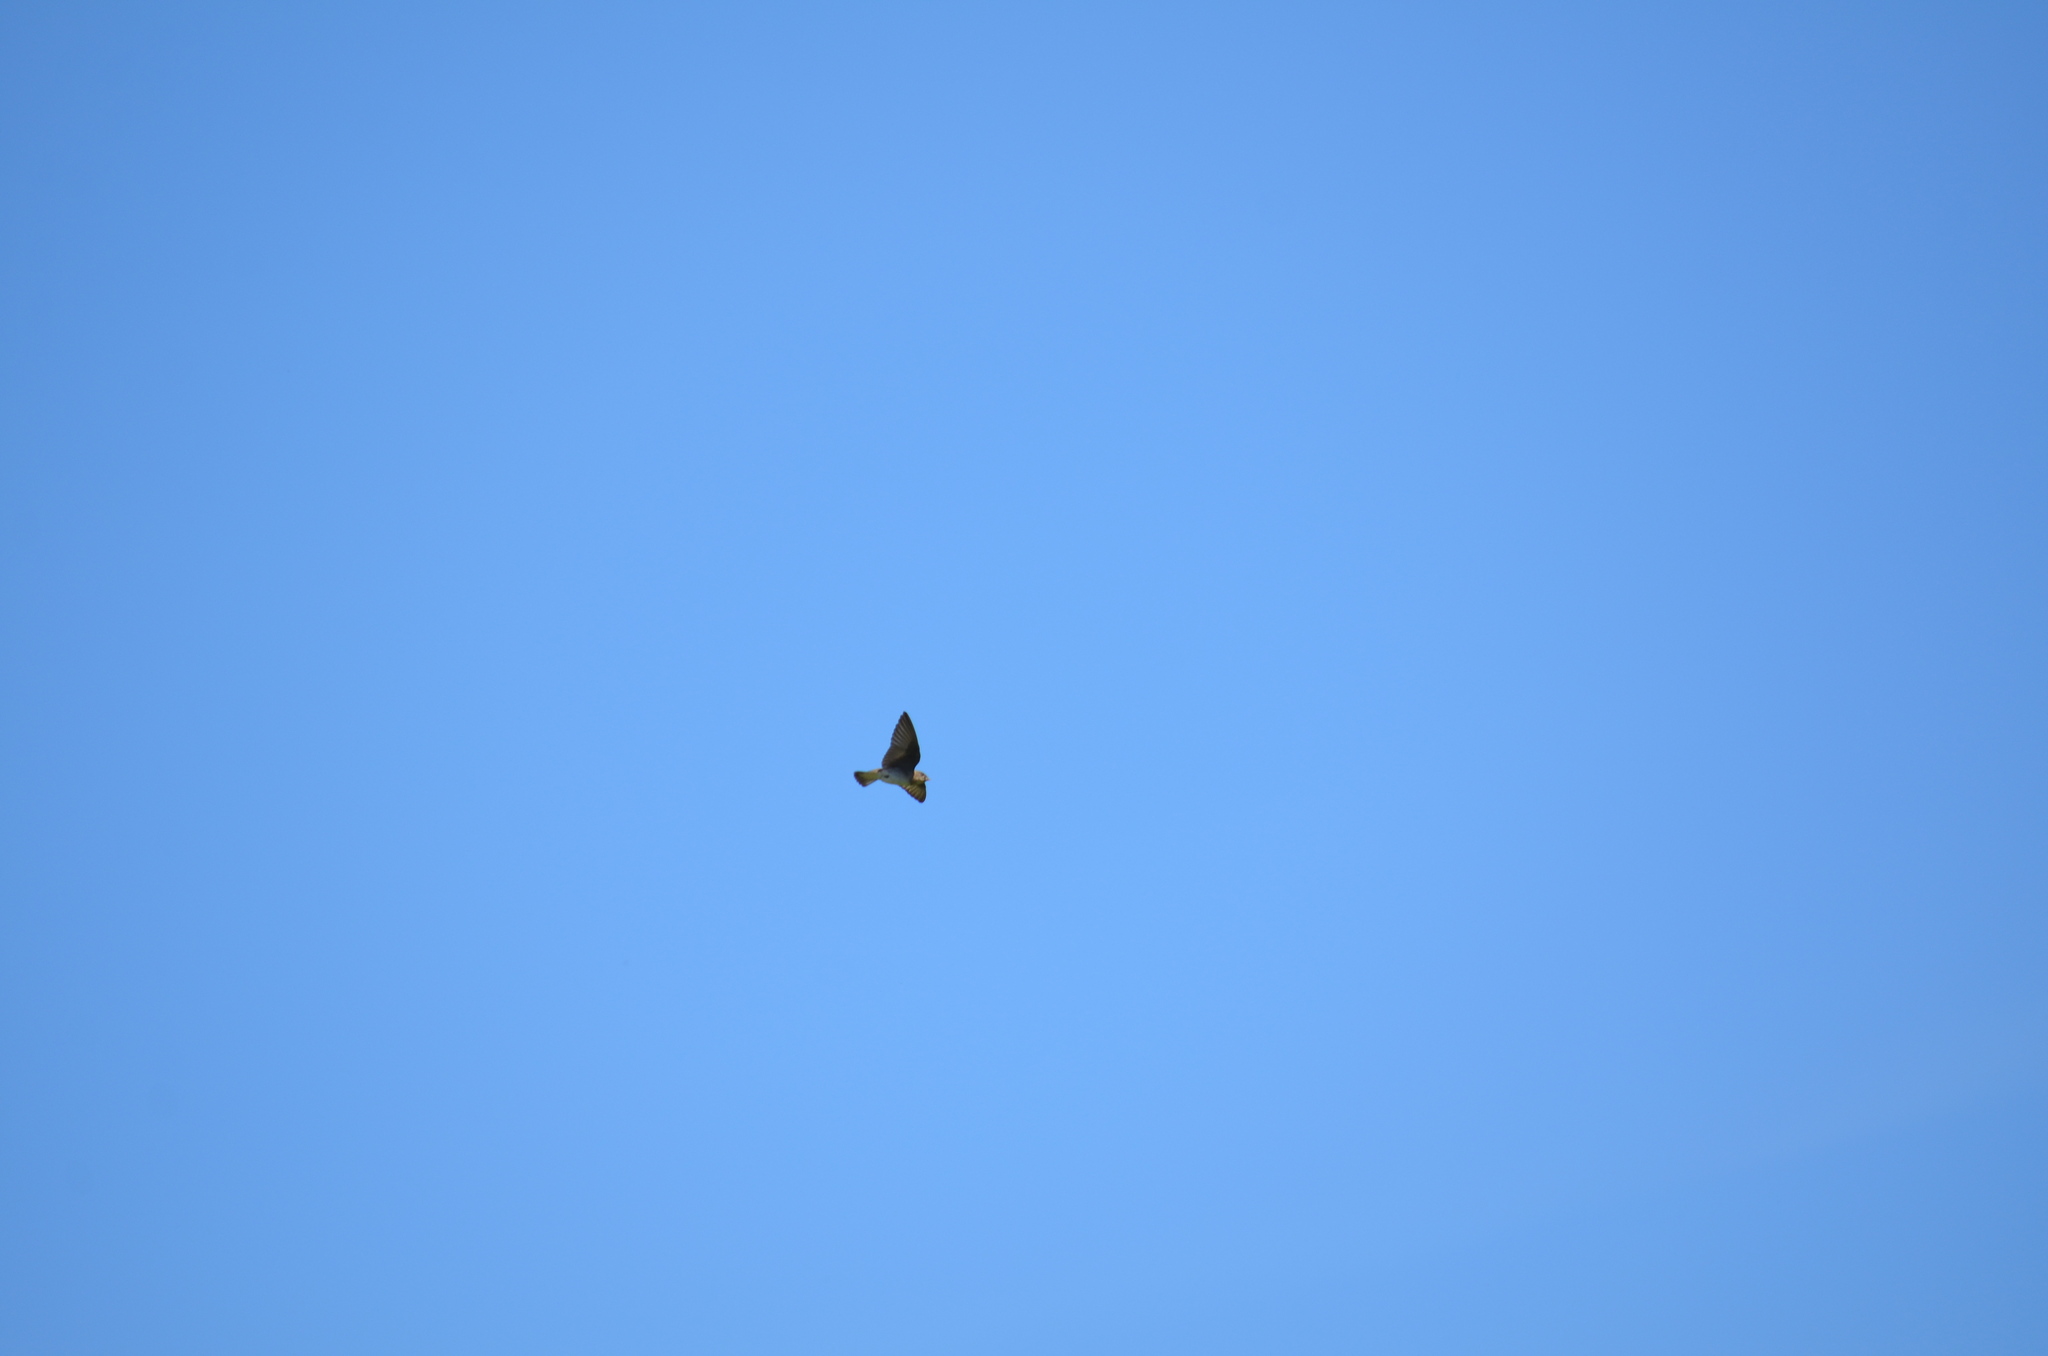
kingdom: Animalia
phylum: Chordata
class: Aves
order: Passeriformes
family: Hirundinidae
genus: Stelgidopteryx
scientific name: Stelgidopteryx serripennis
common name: Northern rough-winged swallow
